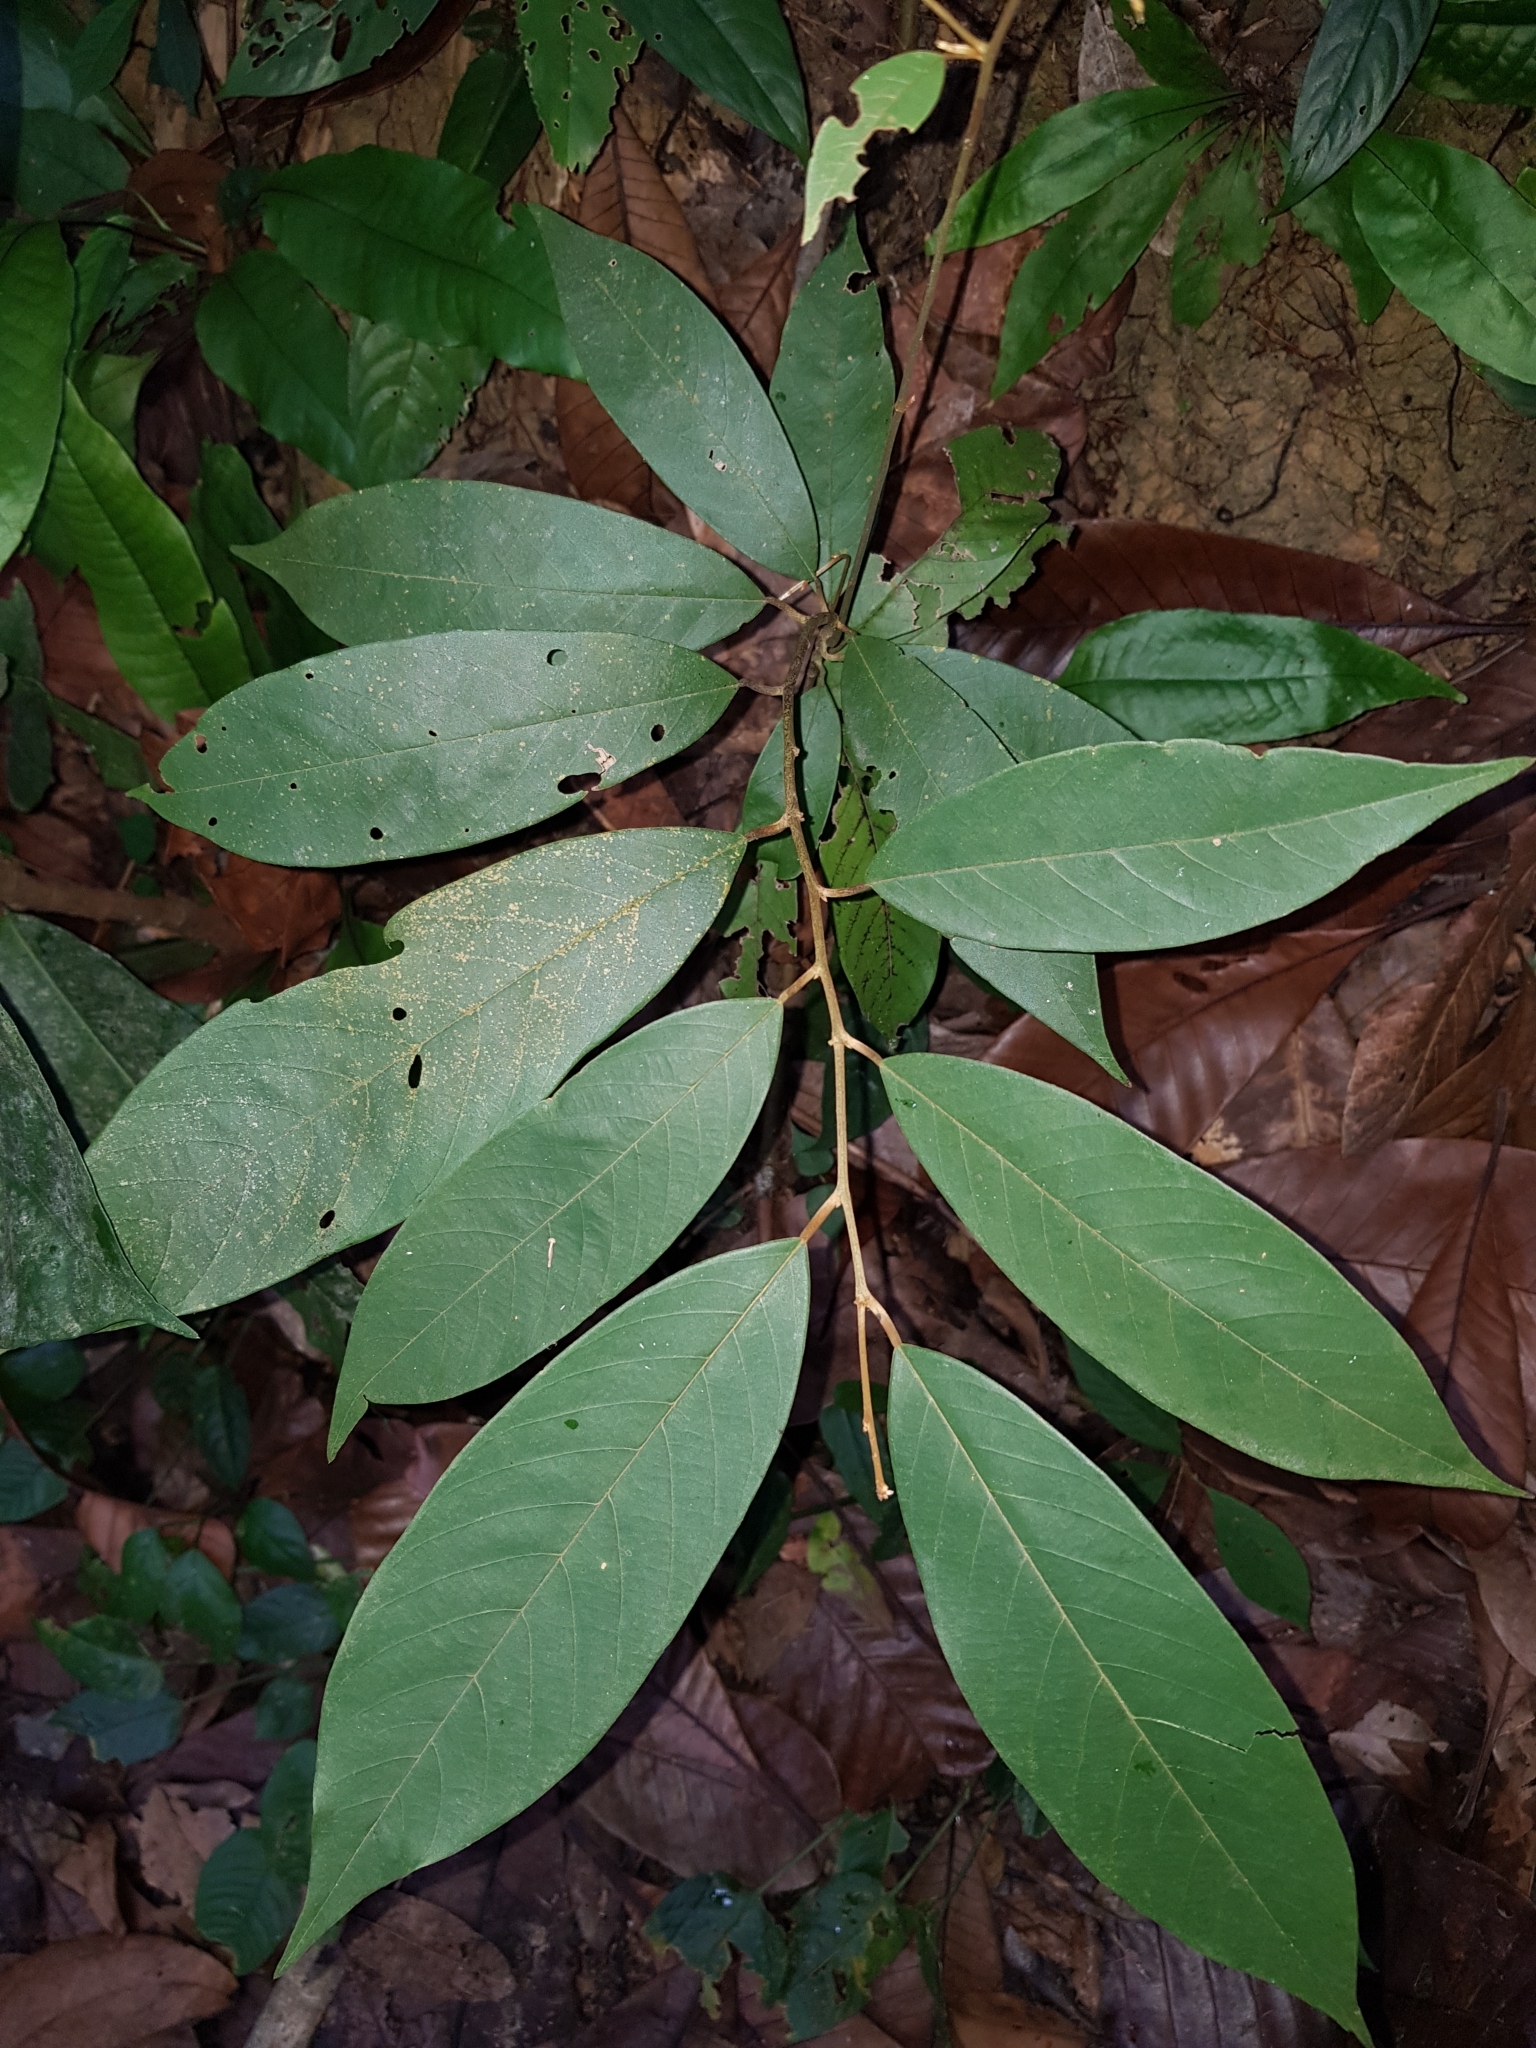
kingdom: Plantae
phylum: Tracheophyta
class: Magnoliopsida
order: Magnoliales
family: Annonaceae
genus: Mitrella
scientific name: Mitrella kentii
